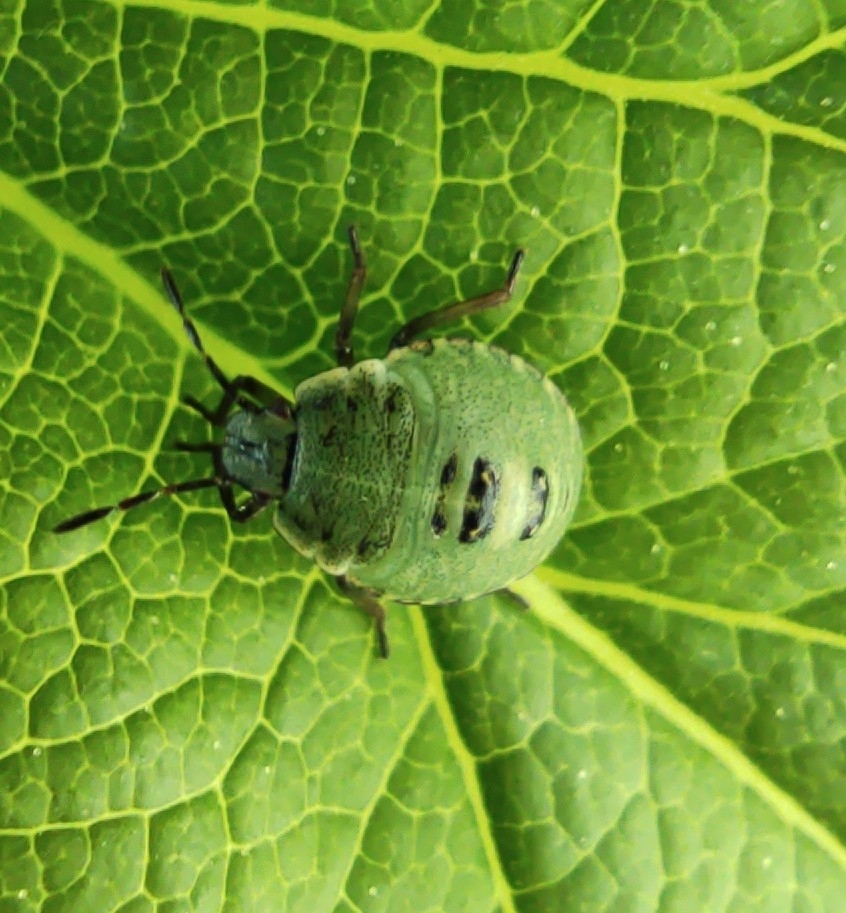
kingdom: Animalia
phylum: Arthropoda
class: Insecta
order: Hemiptera
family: Pentatomidae
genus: Palomena
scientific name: Palomena prasina
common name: Green shieldbug
